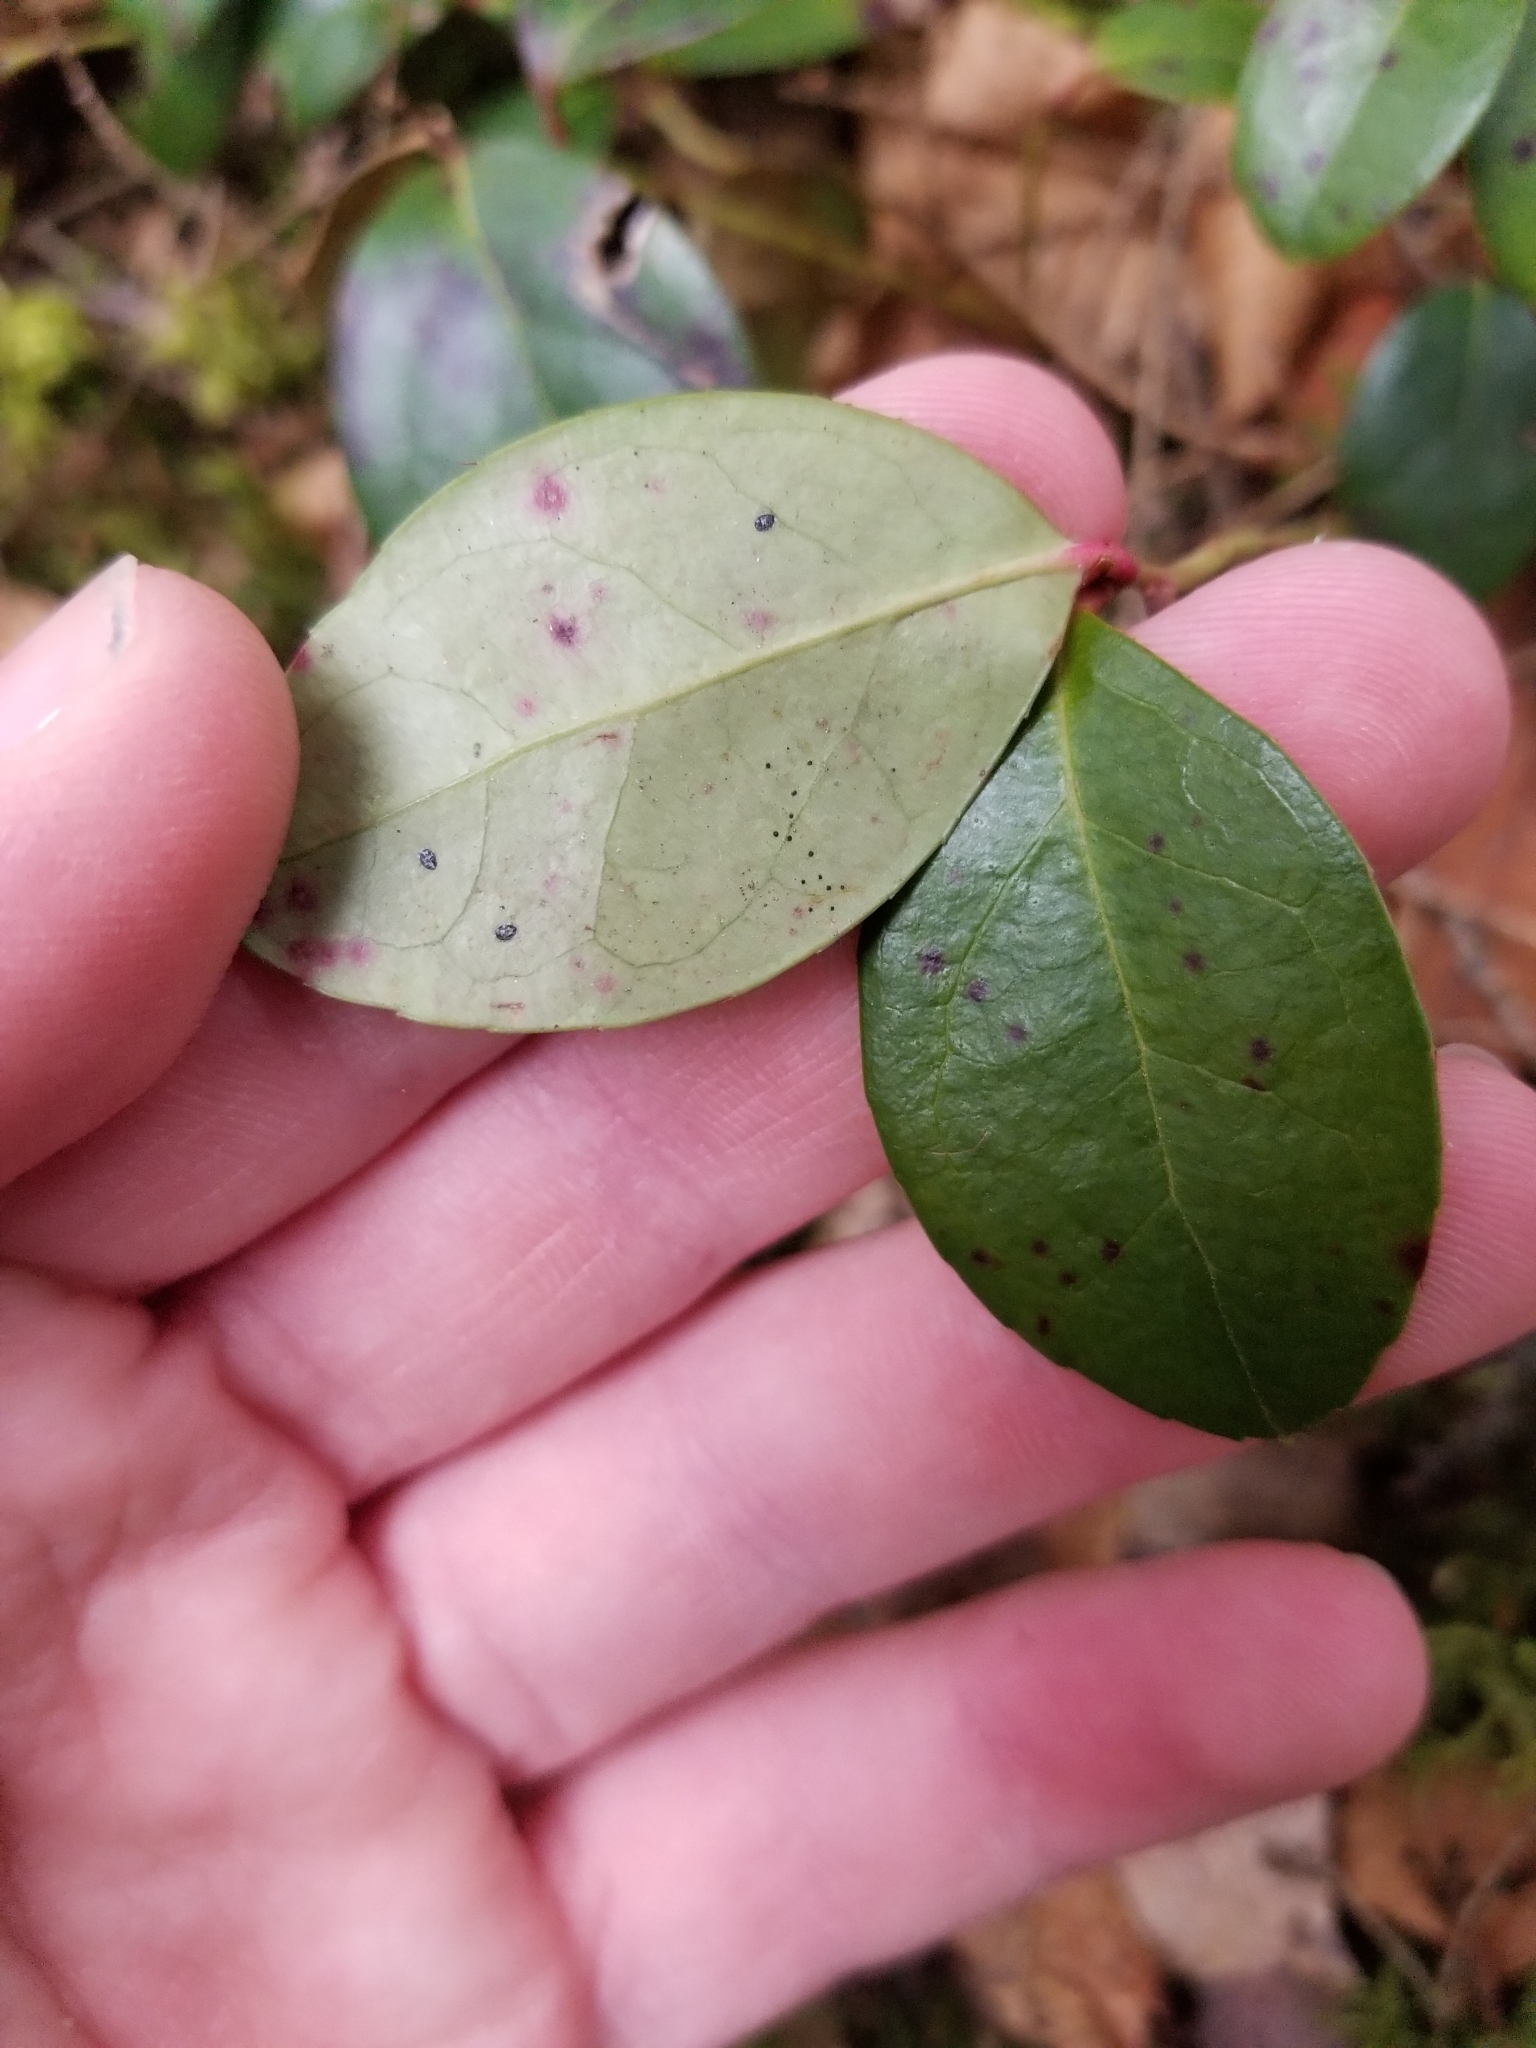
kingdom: Plantae
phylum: Tracheophyta
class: Magnoliopsida
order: Ericales
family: Ericaceae
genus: Gaultheria
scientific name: Gaultheria procumbens
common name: Checkerberry
